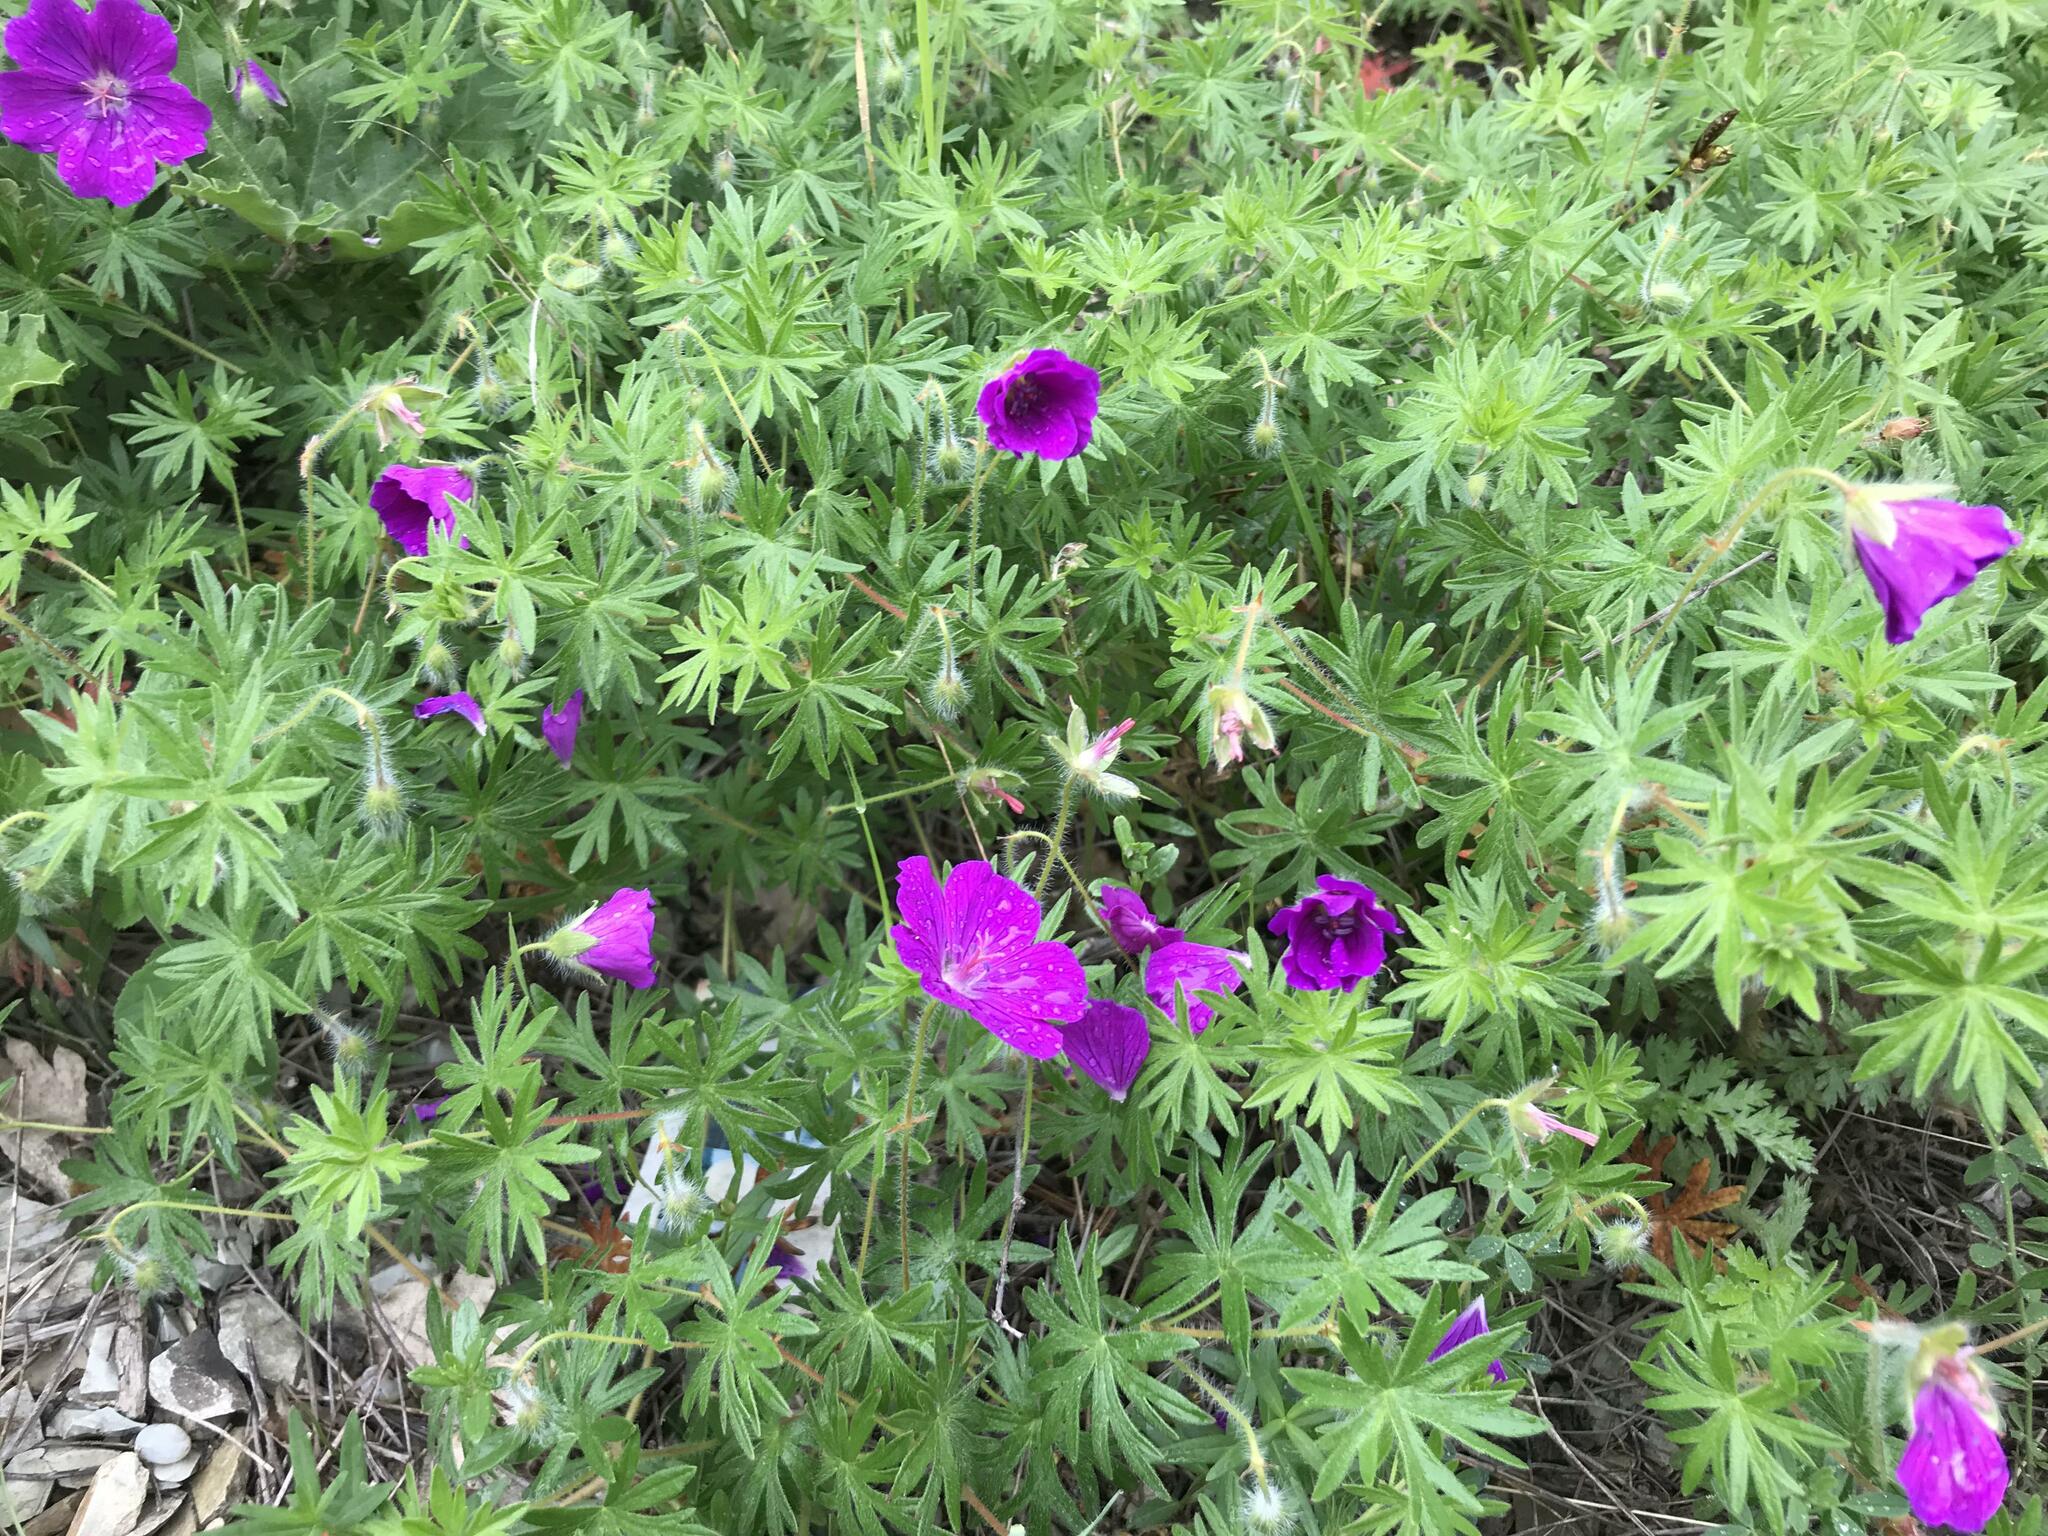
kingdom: Plantae
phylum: Tracheophyta
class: Magnoliopsida
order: Geraniales
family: Geraniaceae
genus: Geranium
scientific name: Geranium sanguineum
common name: Bloody crane's-bill
